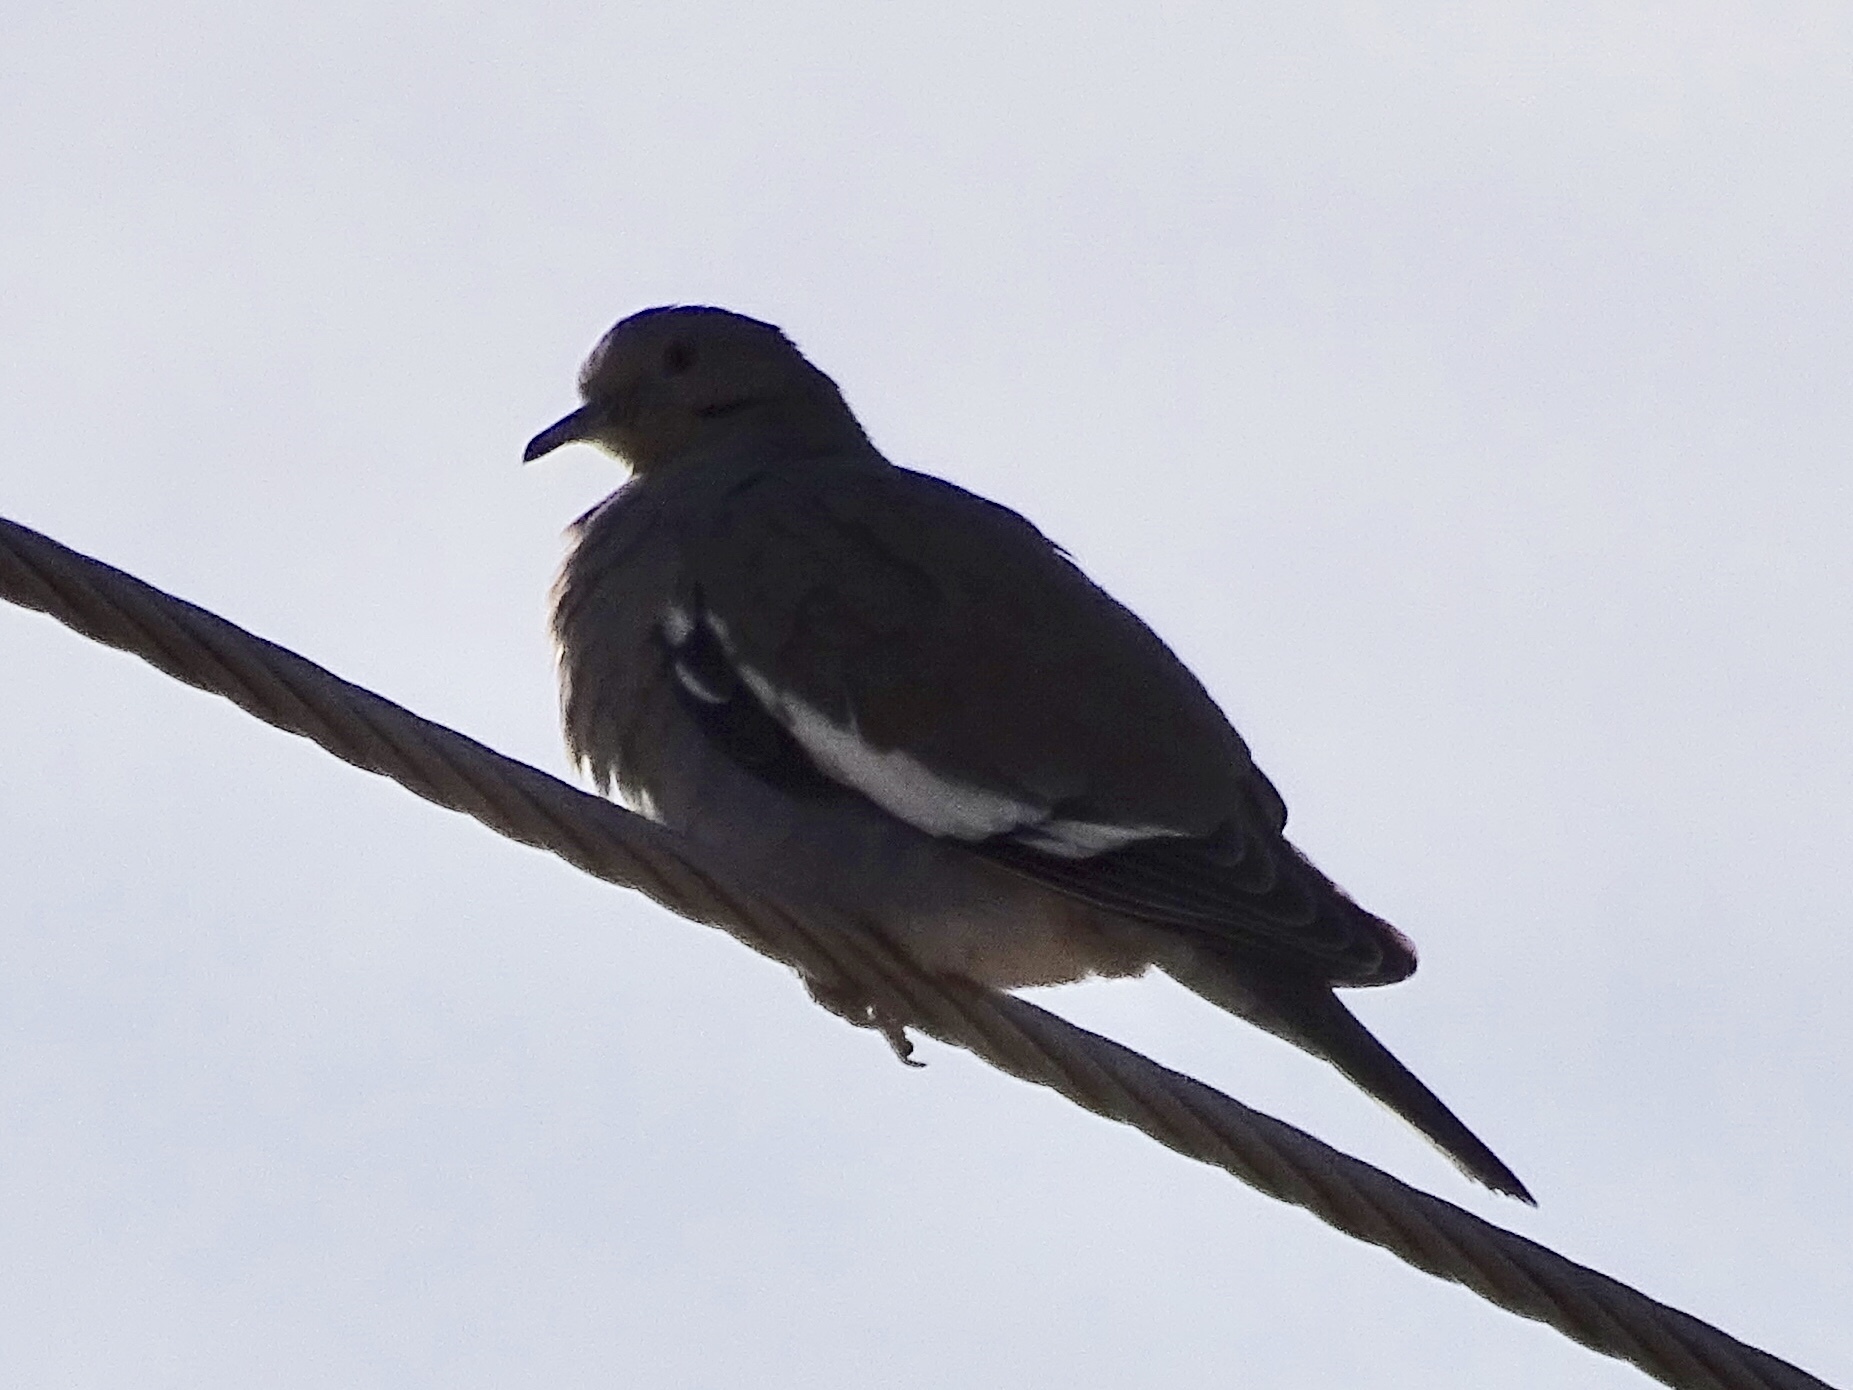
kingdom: Animalia
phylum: Chordata
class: Aves
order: Columbiformes
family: Columbidae
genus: Zenaida
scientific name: Zenaida asiatica
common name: White-winged dove
